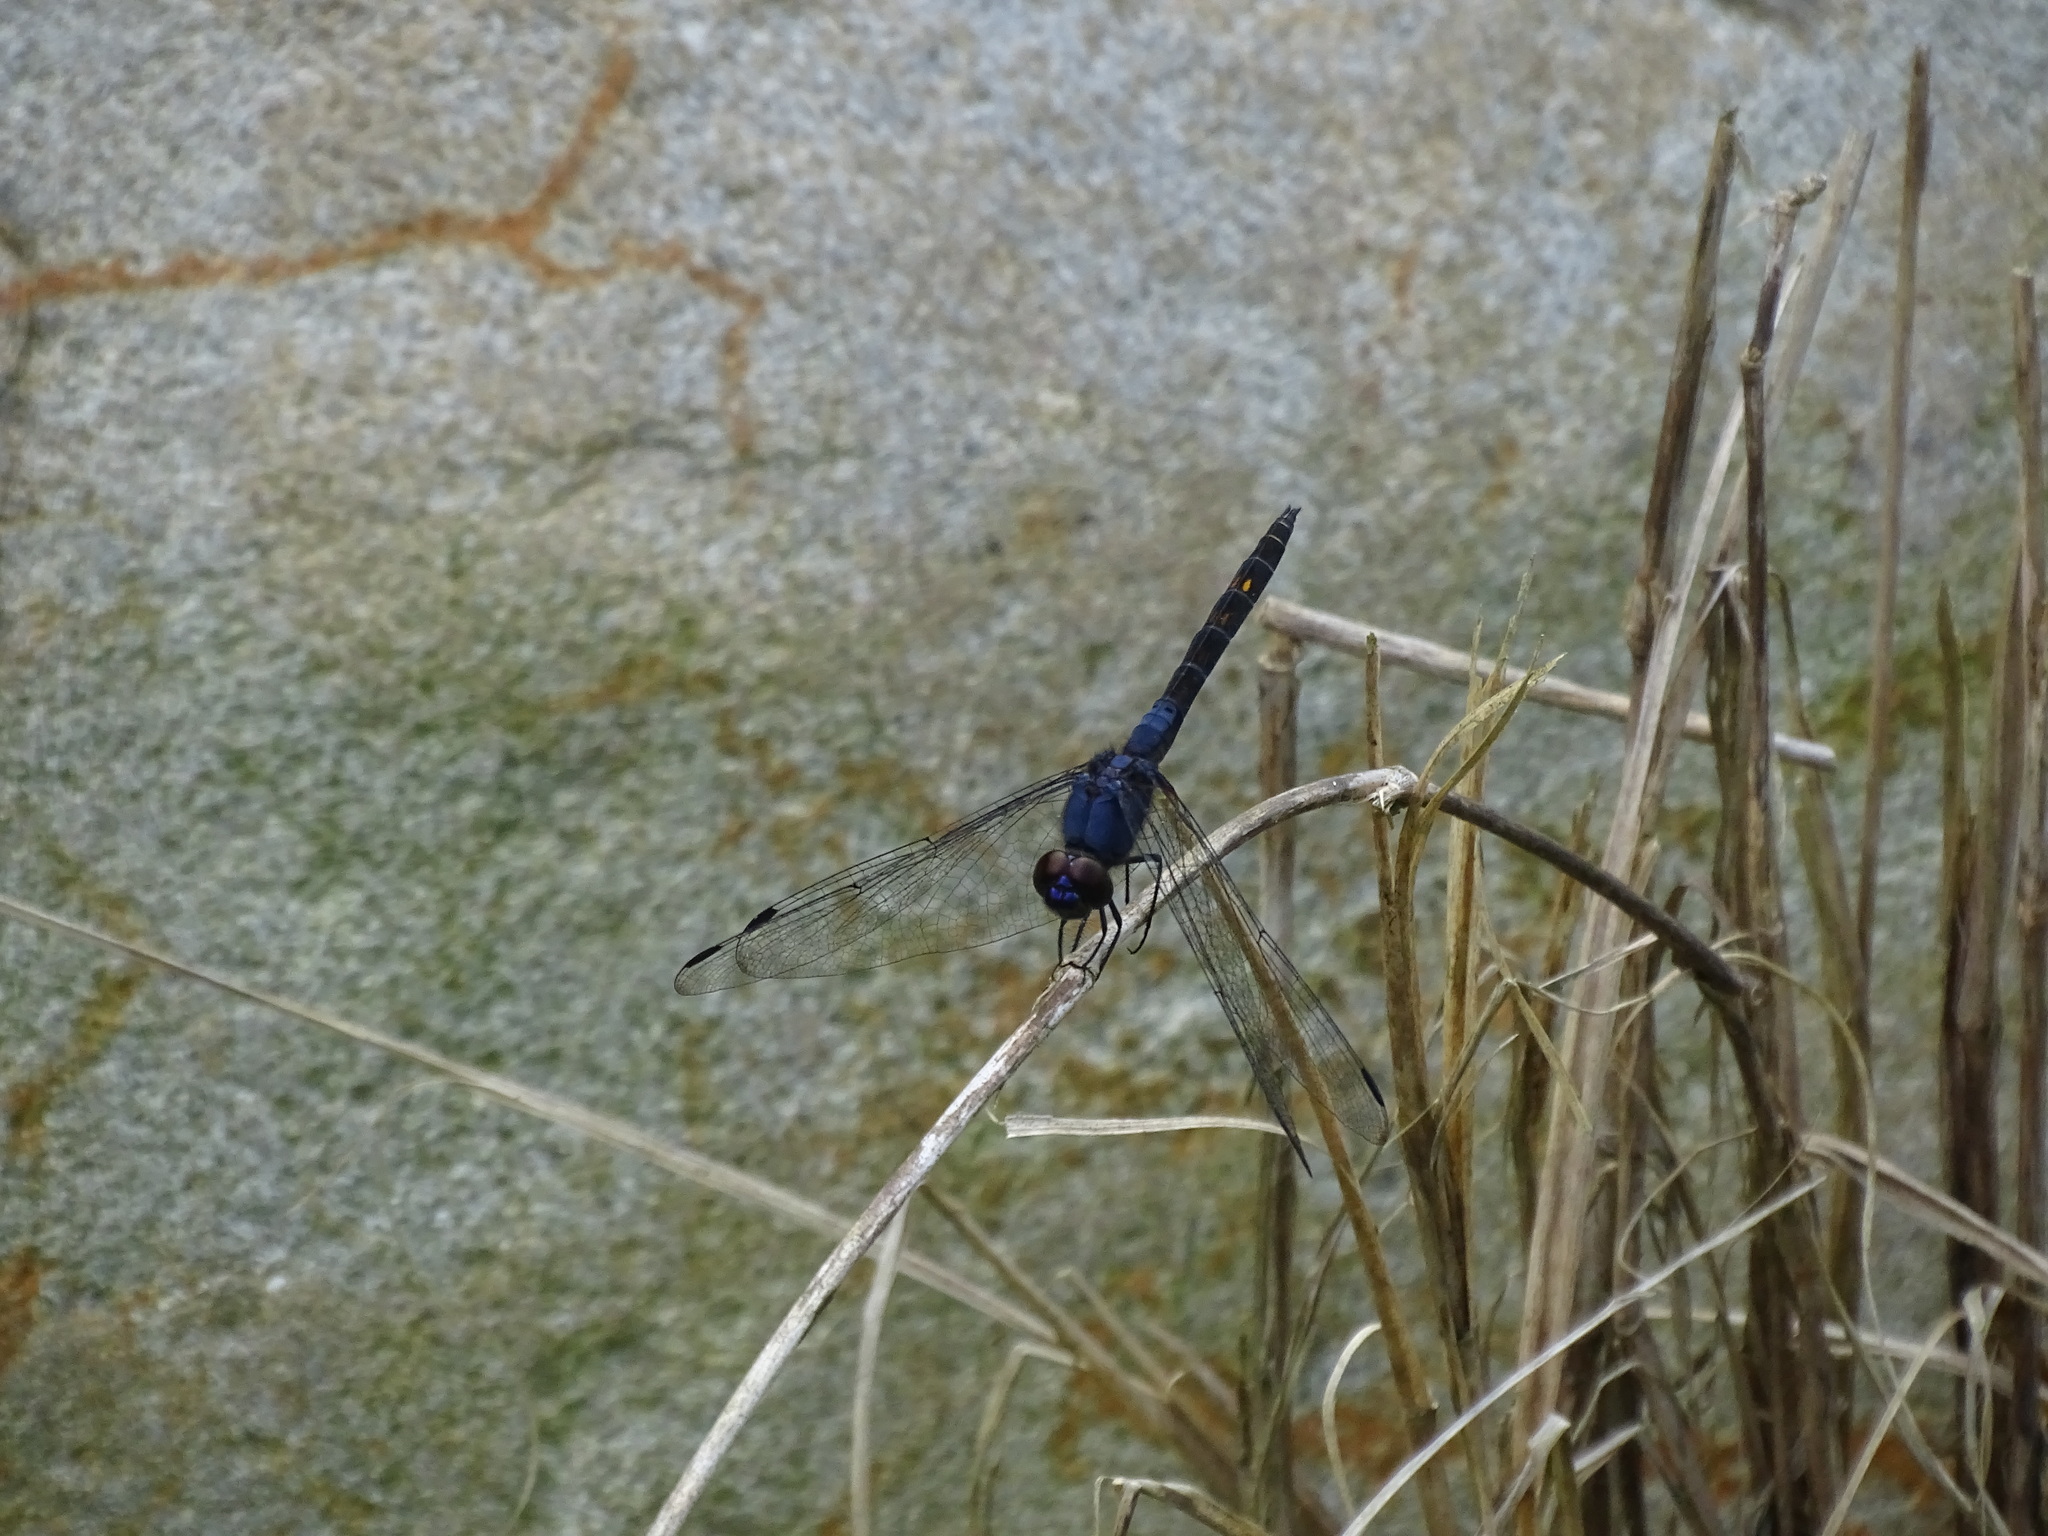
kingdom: Animalia
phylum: Arthropoda
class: Insecta
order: Odonata
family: Libellulidae
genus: Trithemis
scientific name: Trithemis festiva
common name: Indigo dropwing
